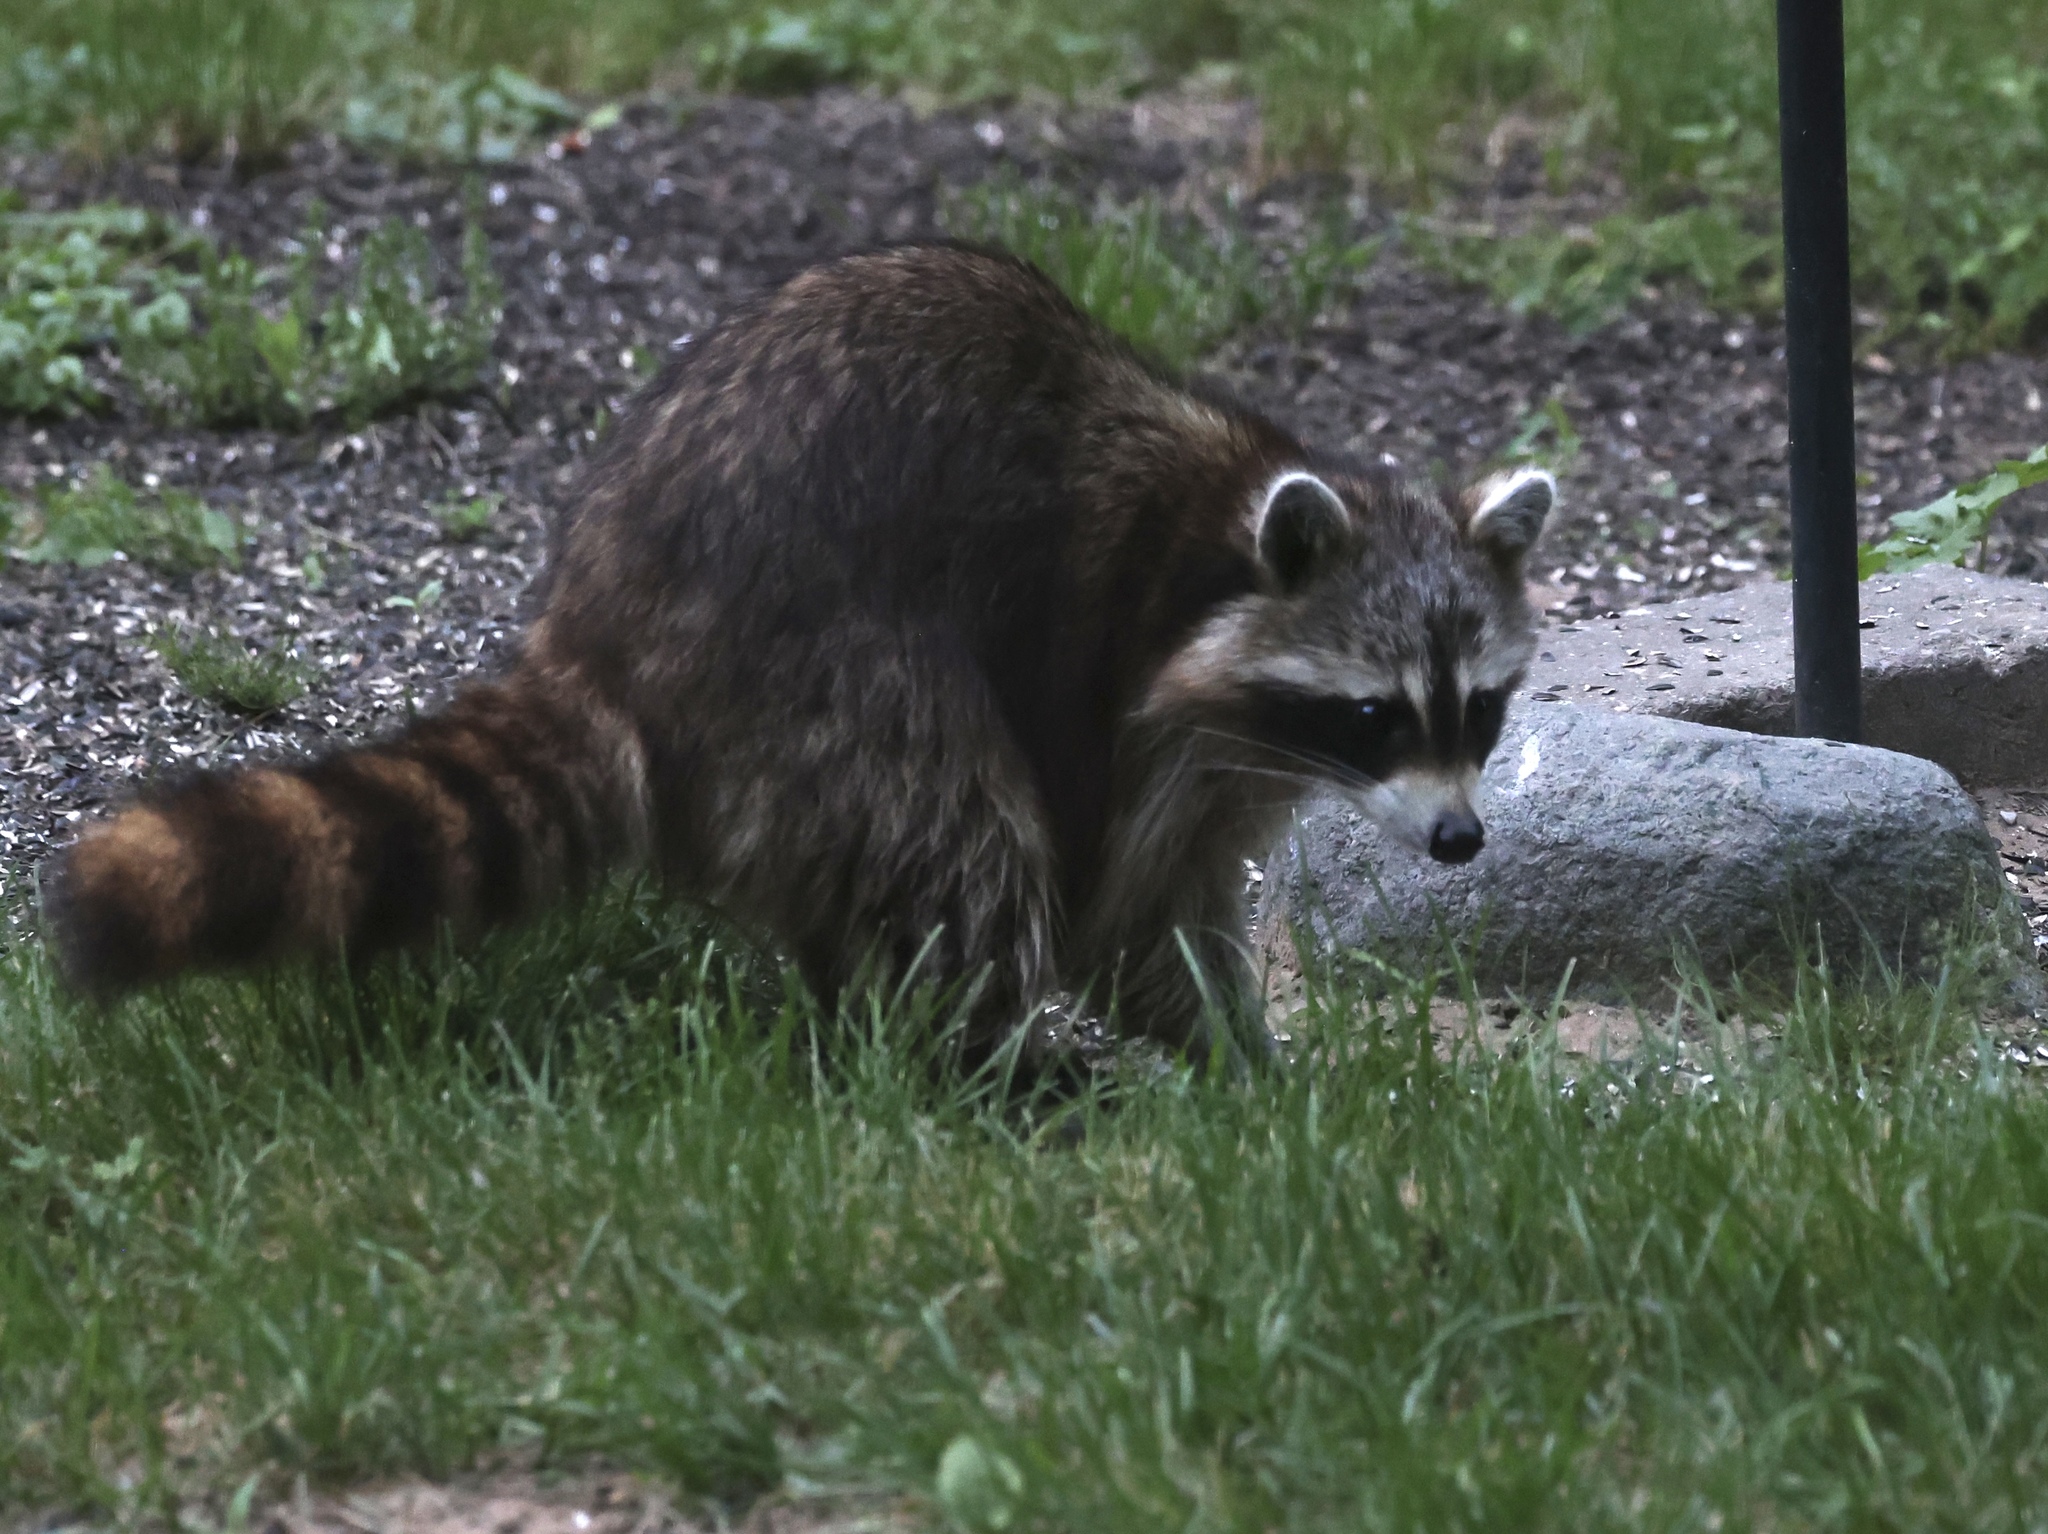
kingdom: Animalia
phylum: Chordata
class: Mammalia
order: Carnivora
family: Procyonidae
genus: Procyon
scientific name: Procyon lotor
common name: Raccoon
